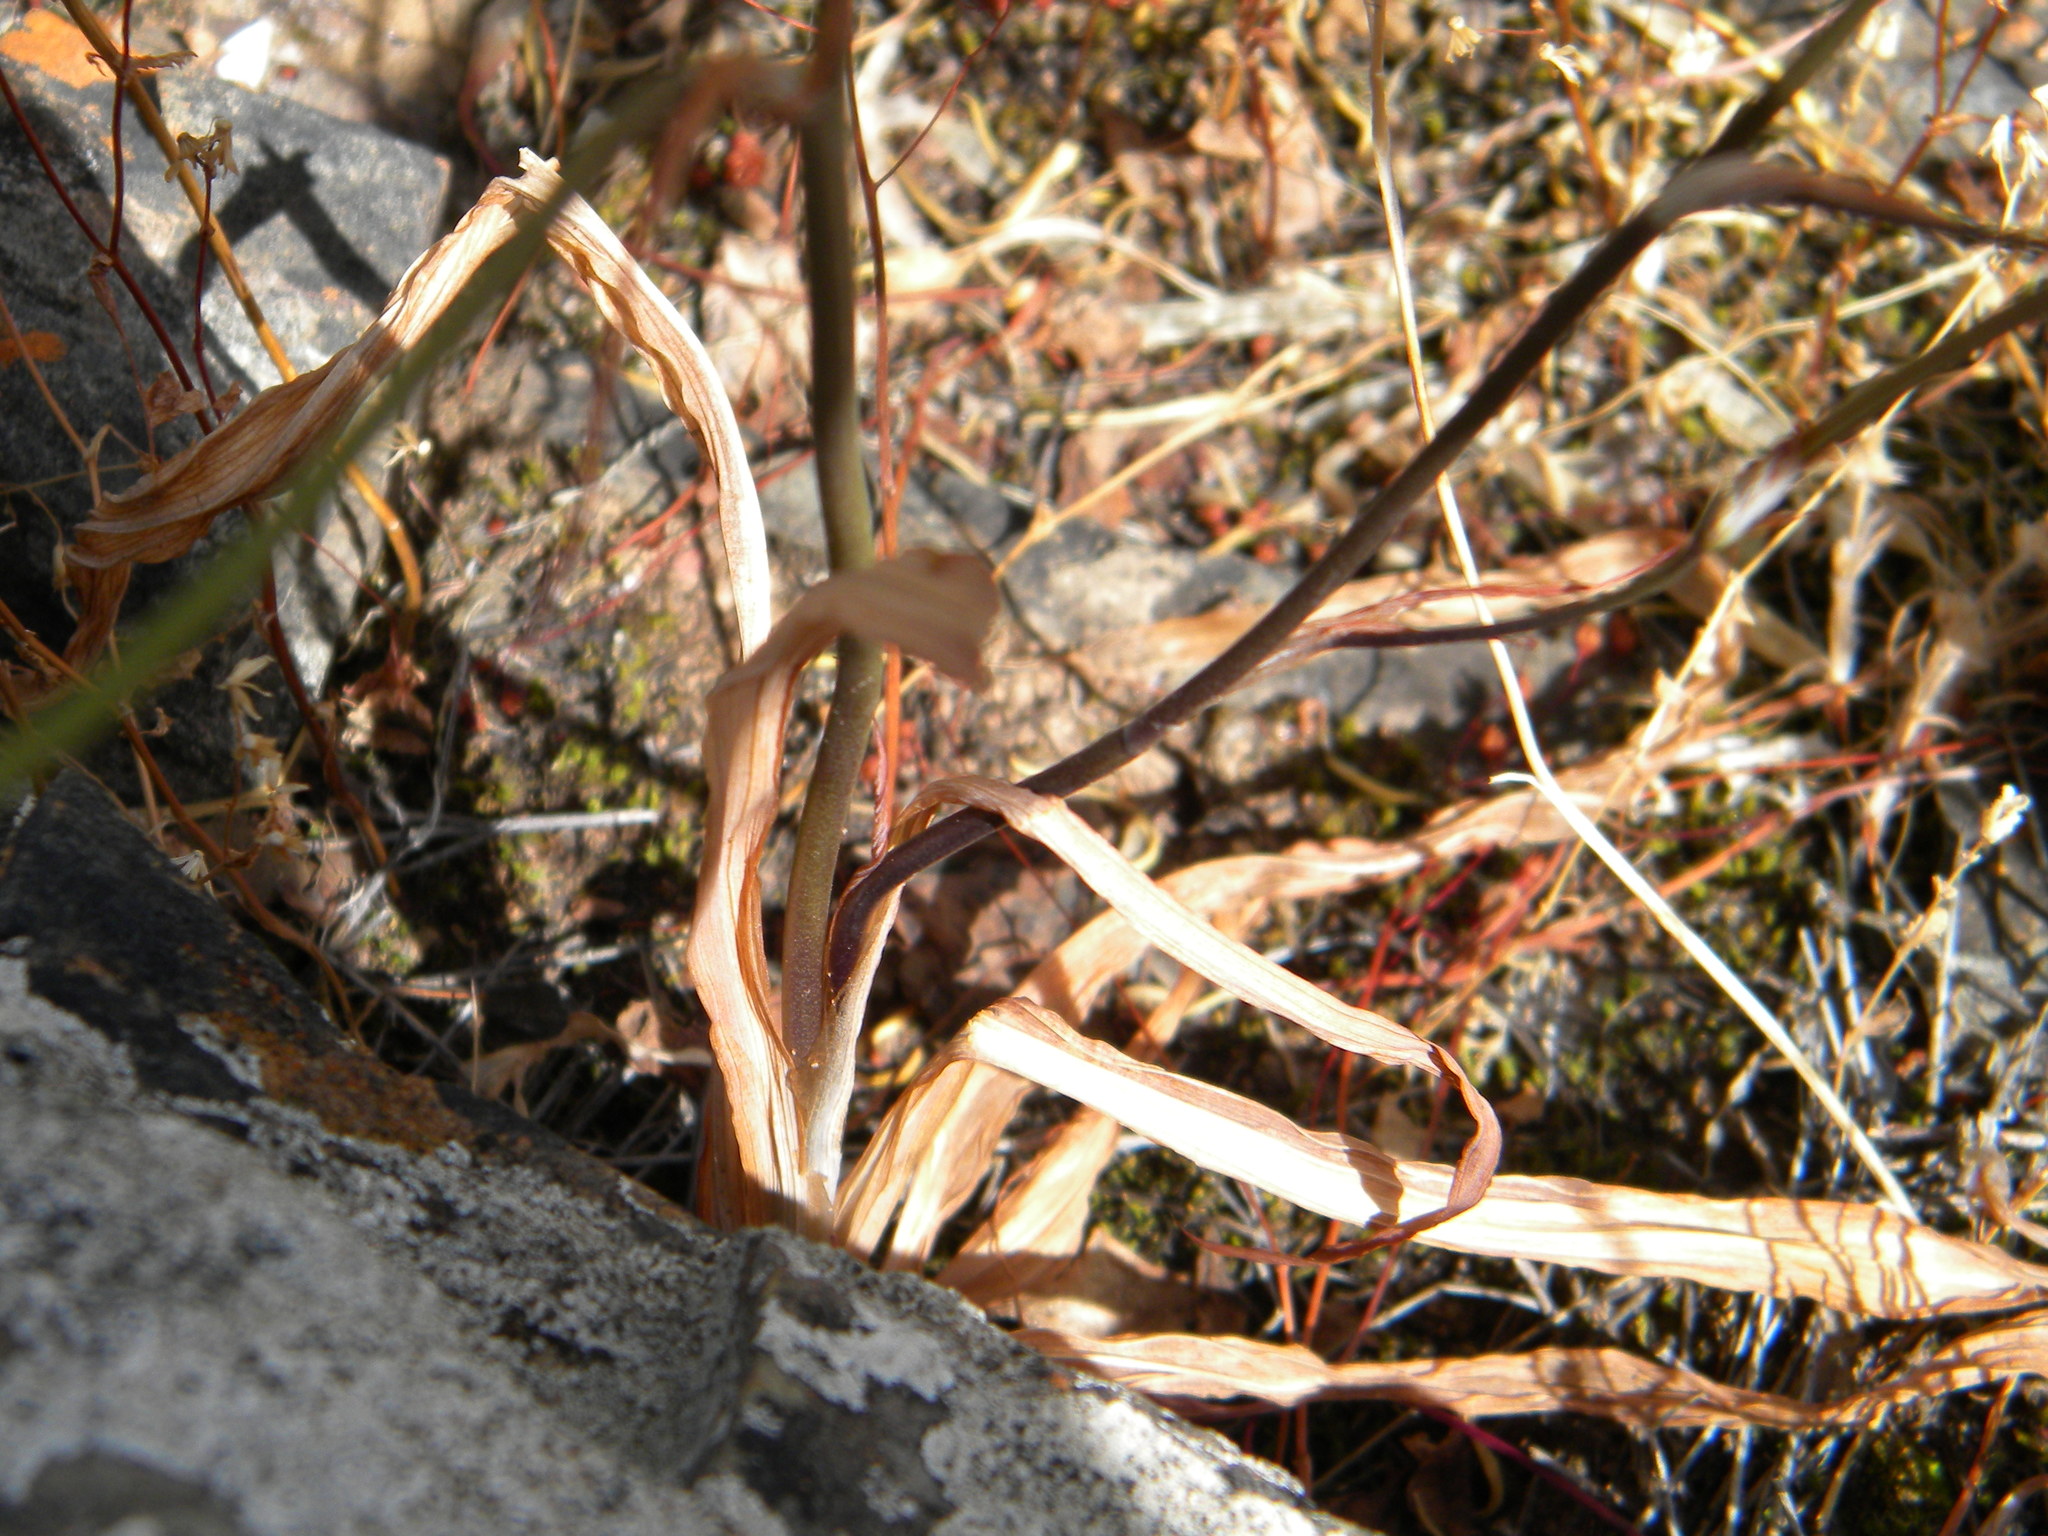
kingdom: Plantae
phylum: Tracheophyta
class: Liliopsida
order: Asparagales
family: Iridaceae
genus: Tritonia
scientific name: Tritonia pallida
